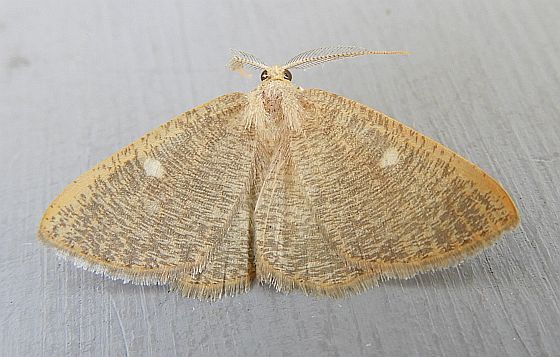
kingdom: Animalia
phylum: Arthropoda
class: Insecta
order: Lepidoptera
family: Geometridae
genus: Pterospoda
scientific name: Pterospoda kunzei
